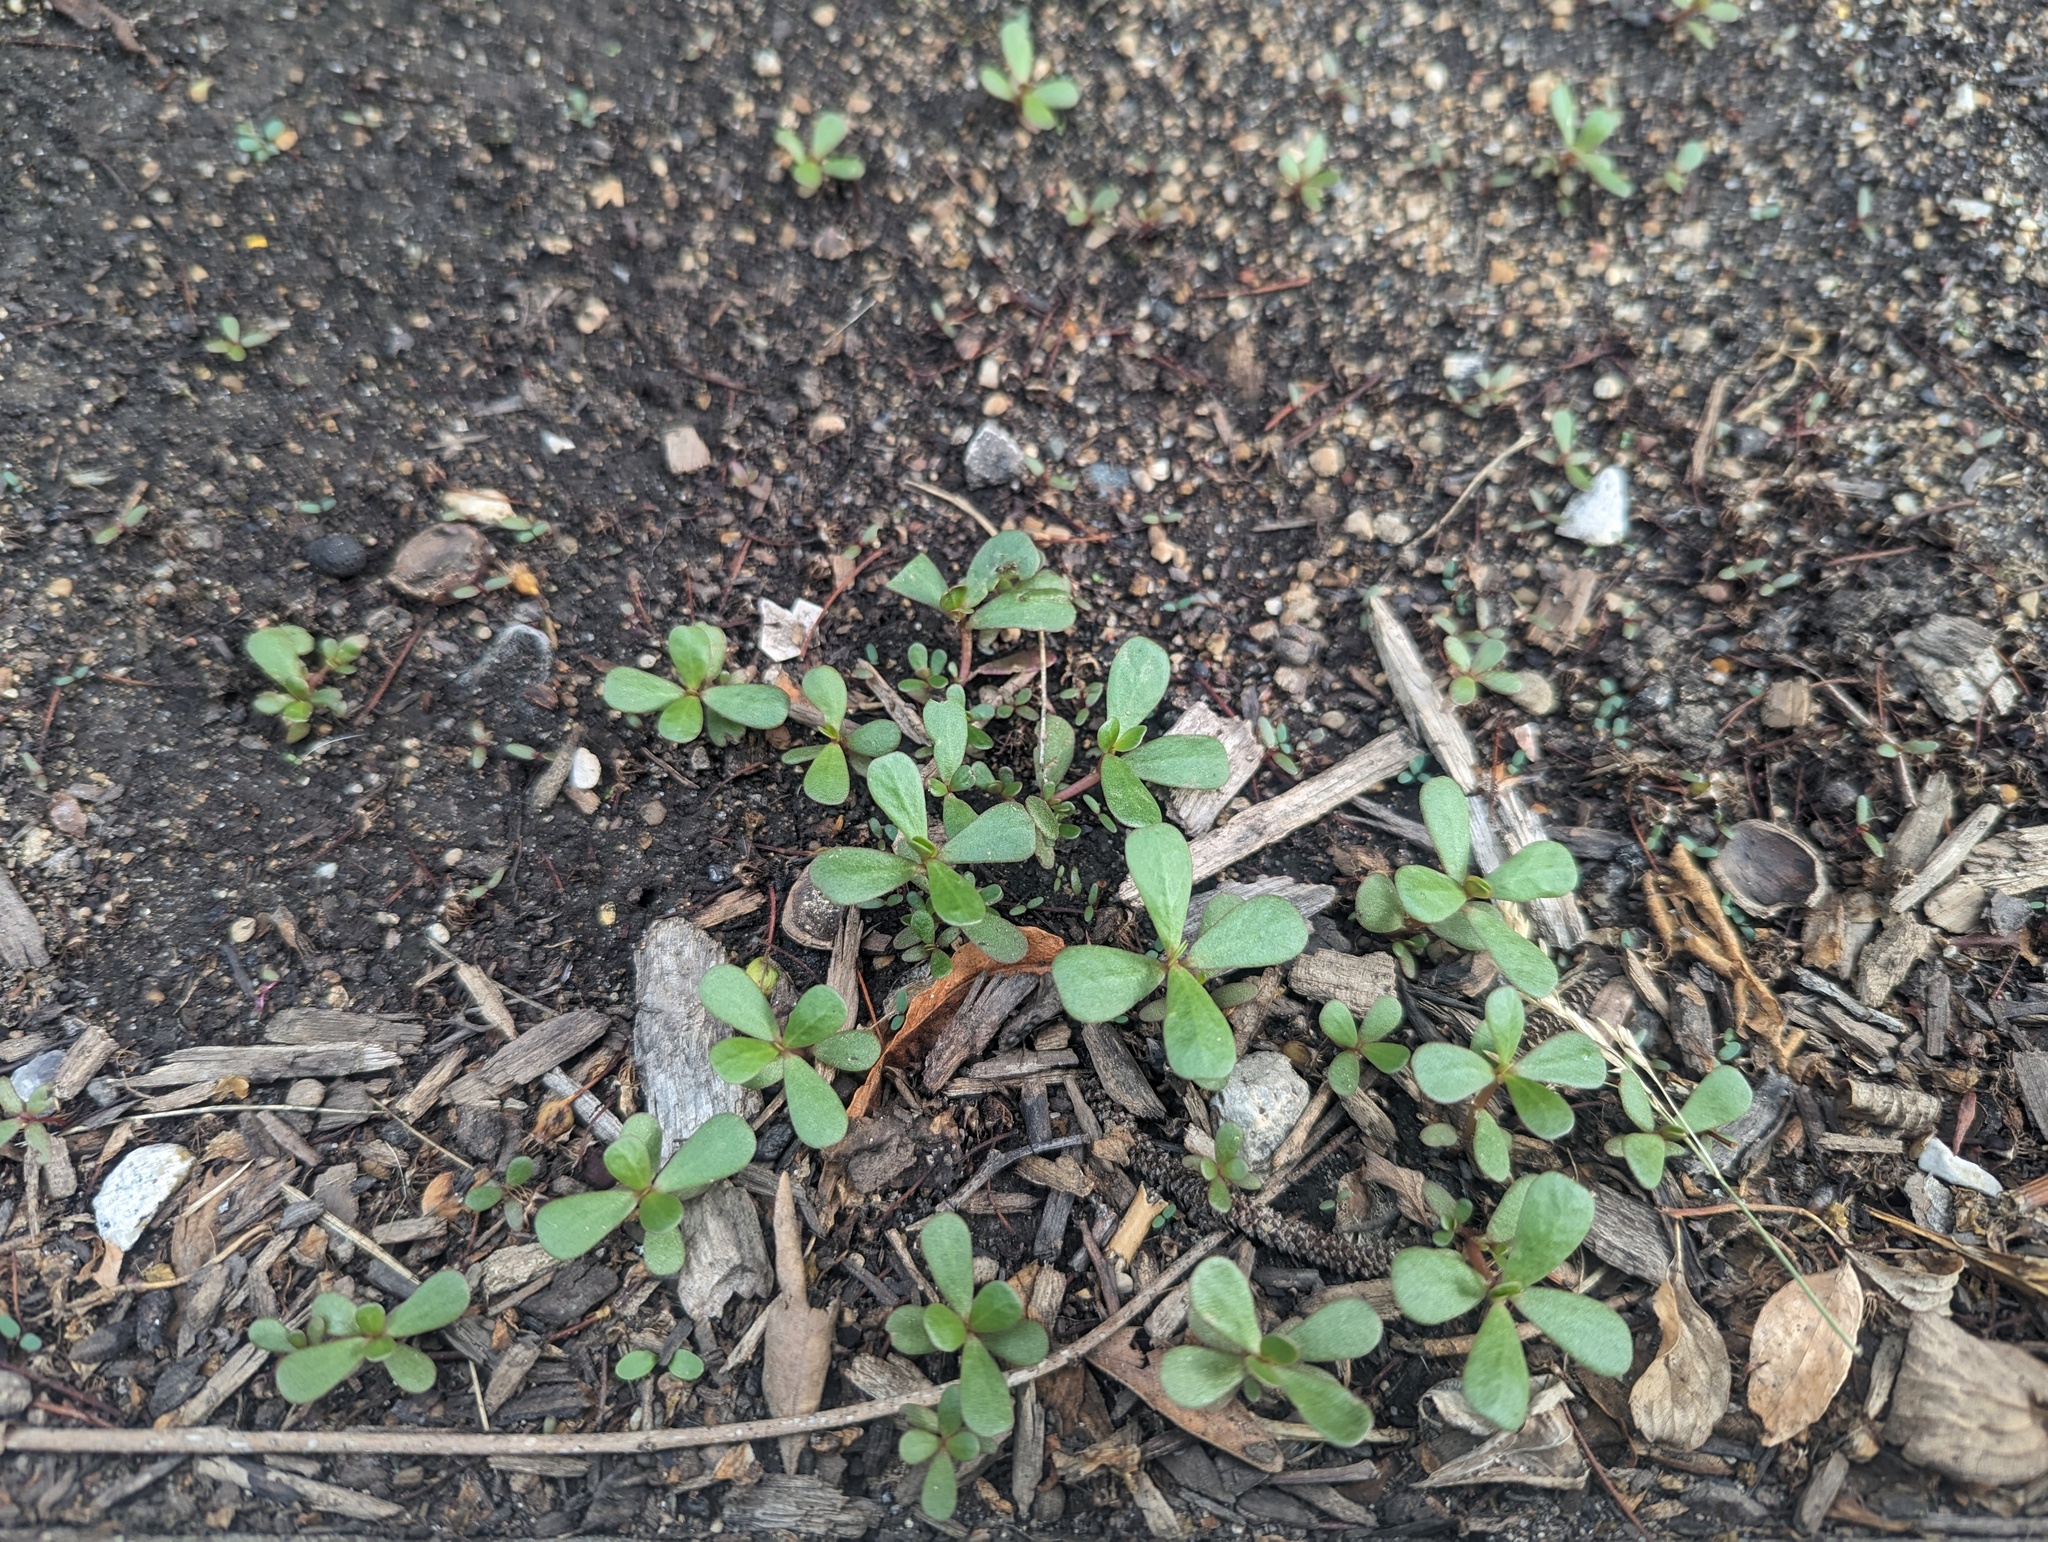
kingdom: Plantae
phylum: Tracheophyta
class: Magnoliopsida
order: Caryophyllales
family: Portulacaceae
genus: Portulaca
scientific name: Portulaca oleracea
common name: Common purslane
